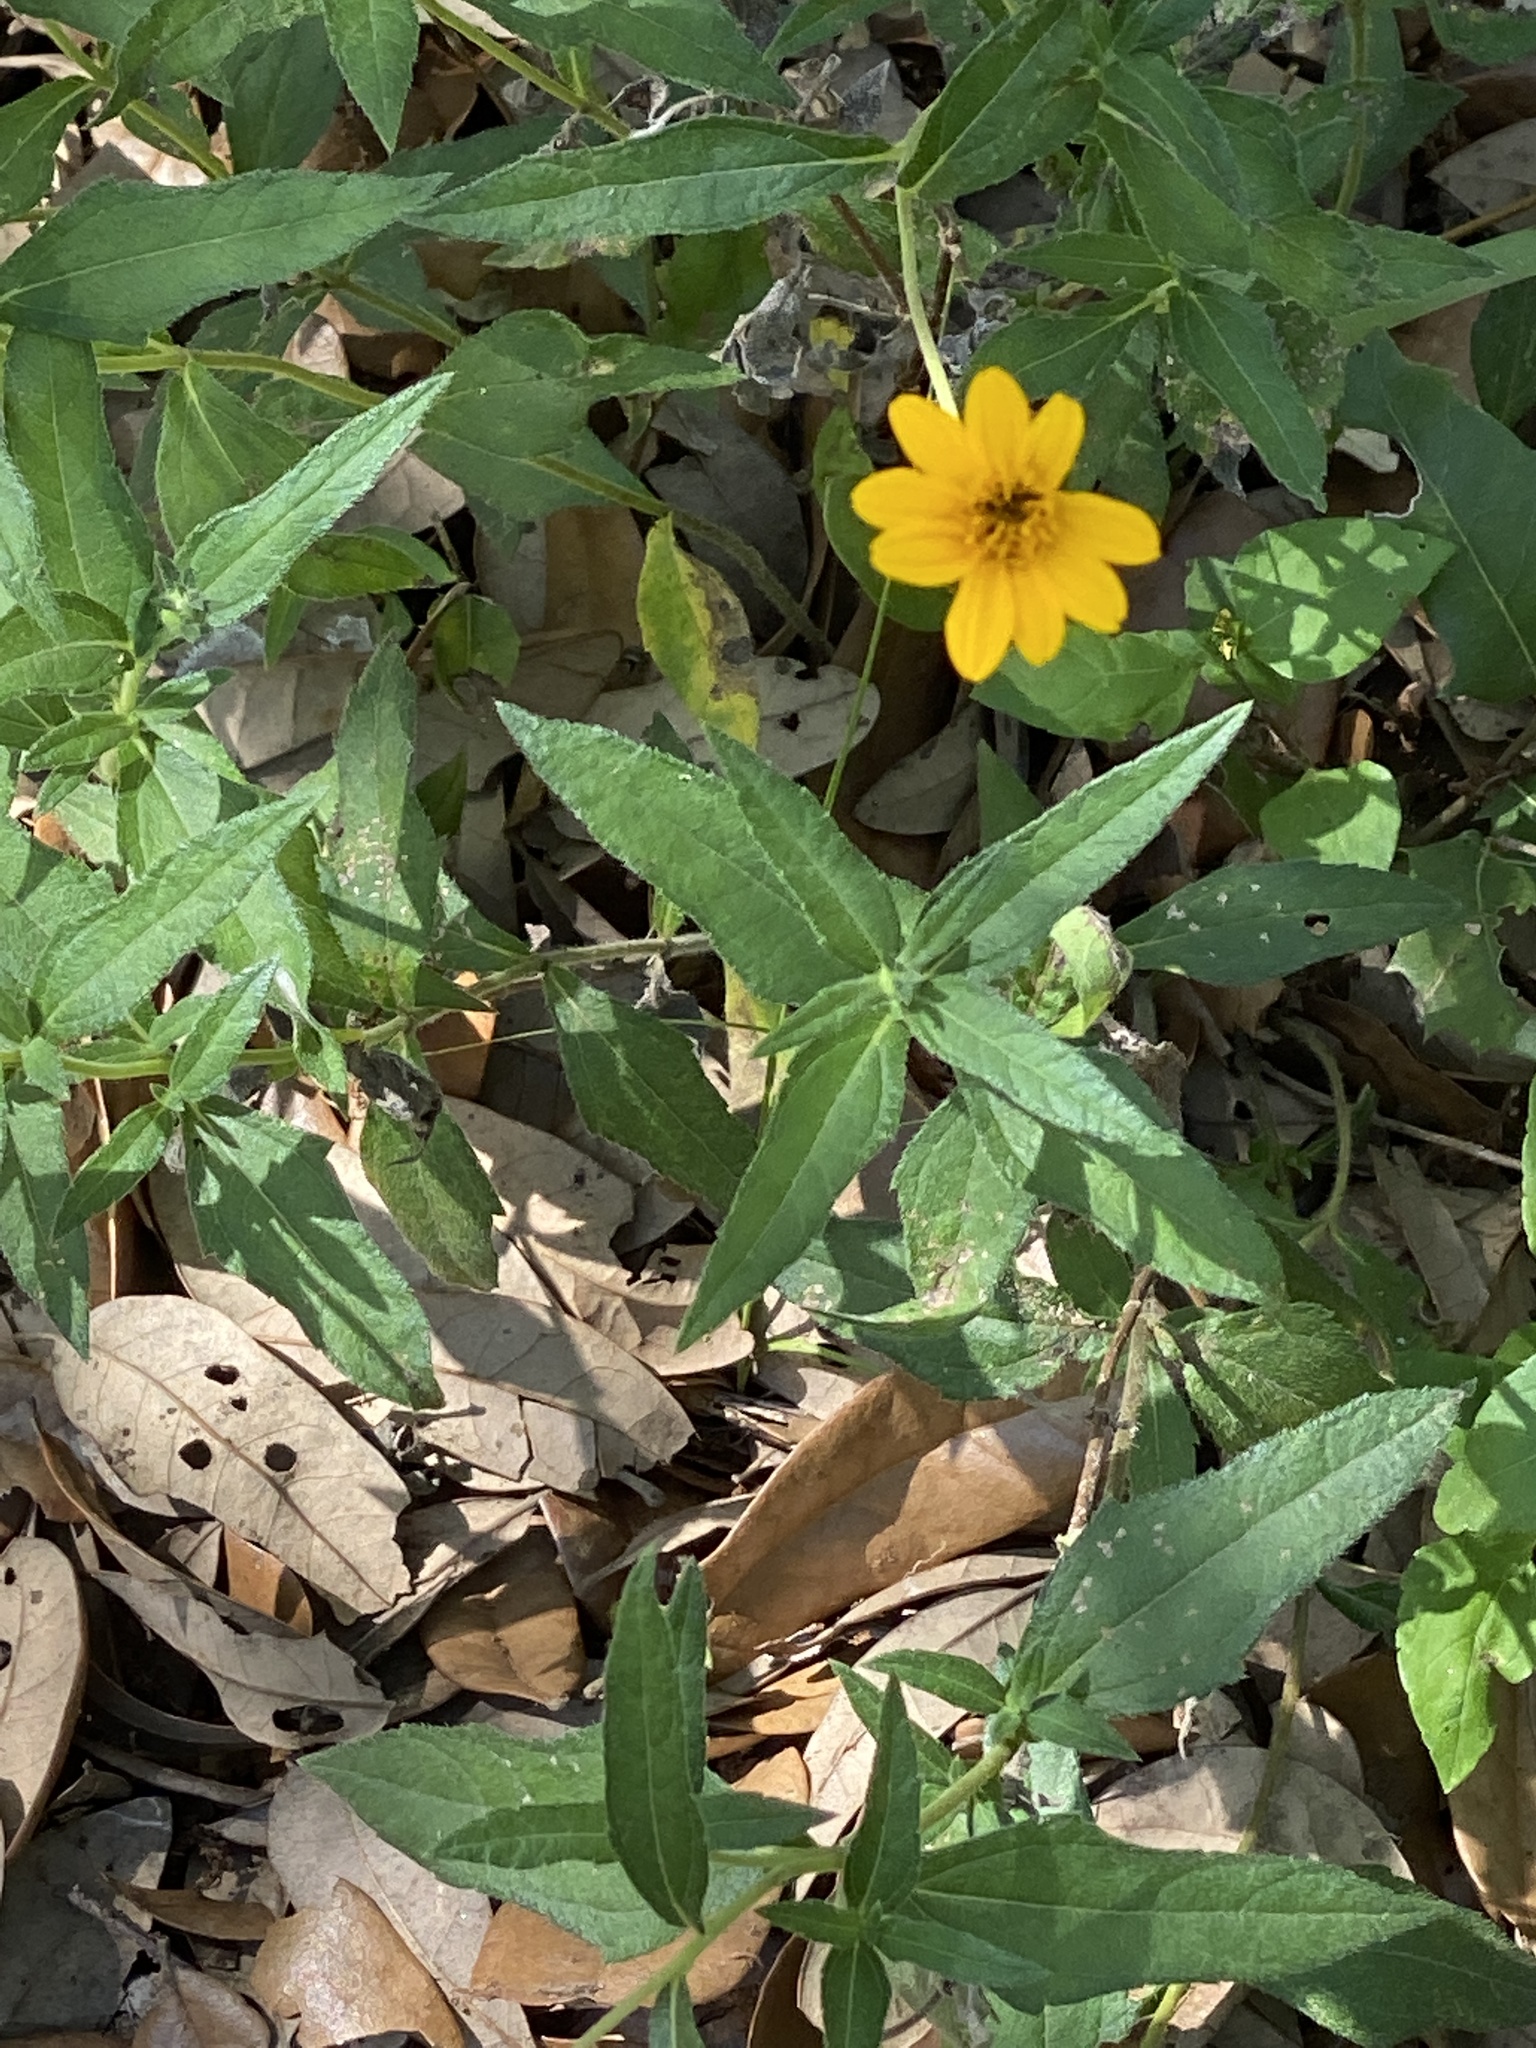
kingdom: Plantae
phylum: Tracheophyta
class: Magnoliopsida
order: Asterales
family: Asteraceae
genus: Wedelia
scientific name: Wedelia acapulcensis
